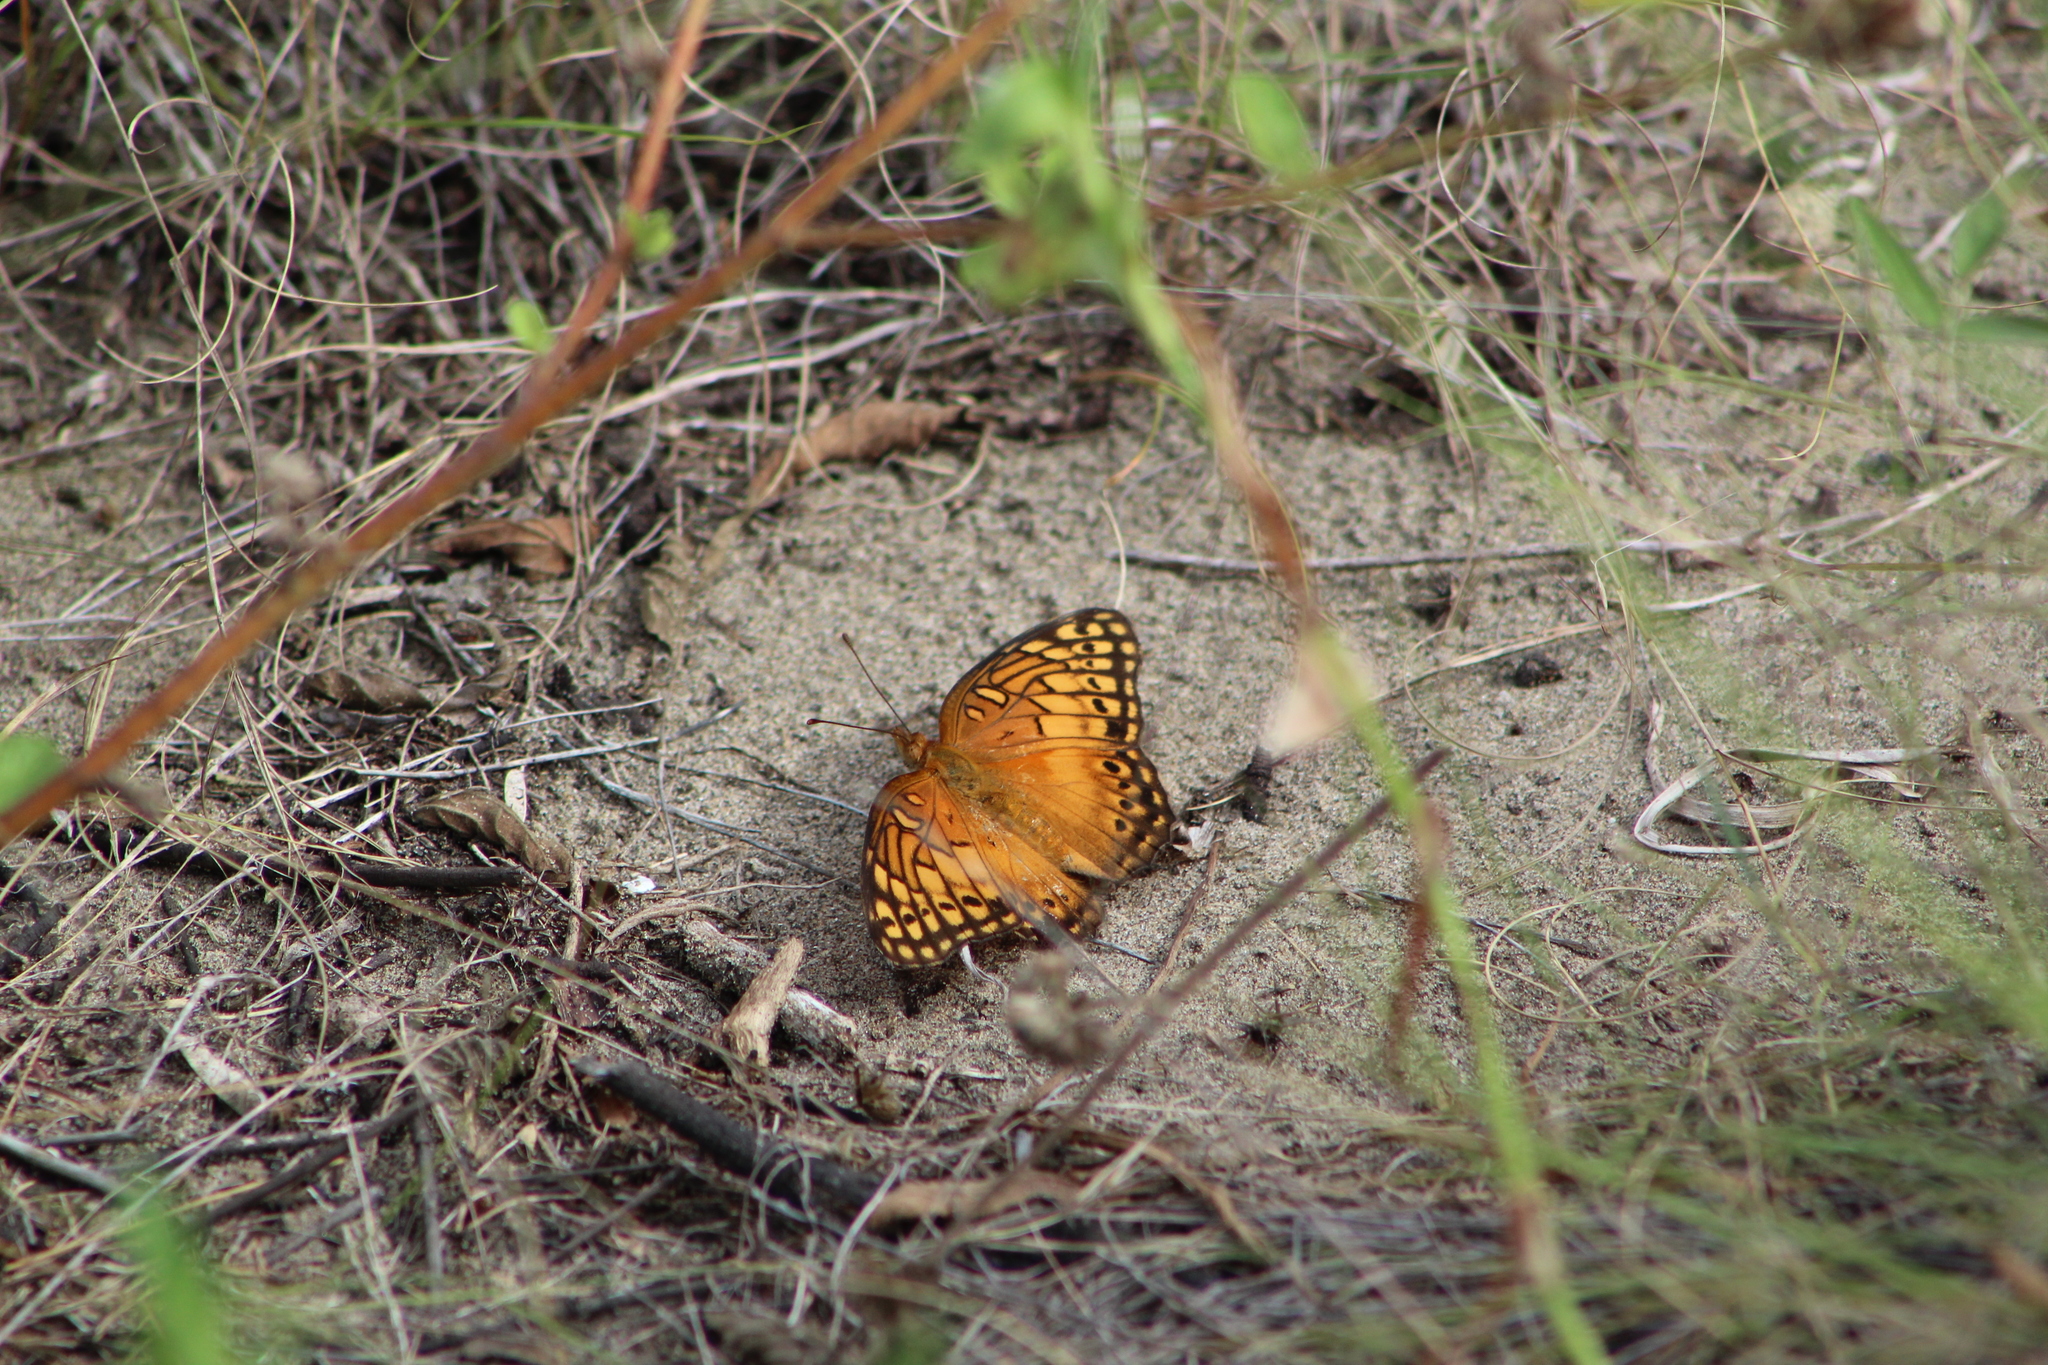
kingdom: Animalia
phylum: Arthropoda
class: Insecta
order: Lepidoptera
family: Nymphalidae
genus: Euptoieta
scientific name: Euptoieta hegesia
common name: Mexican fritillary
